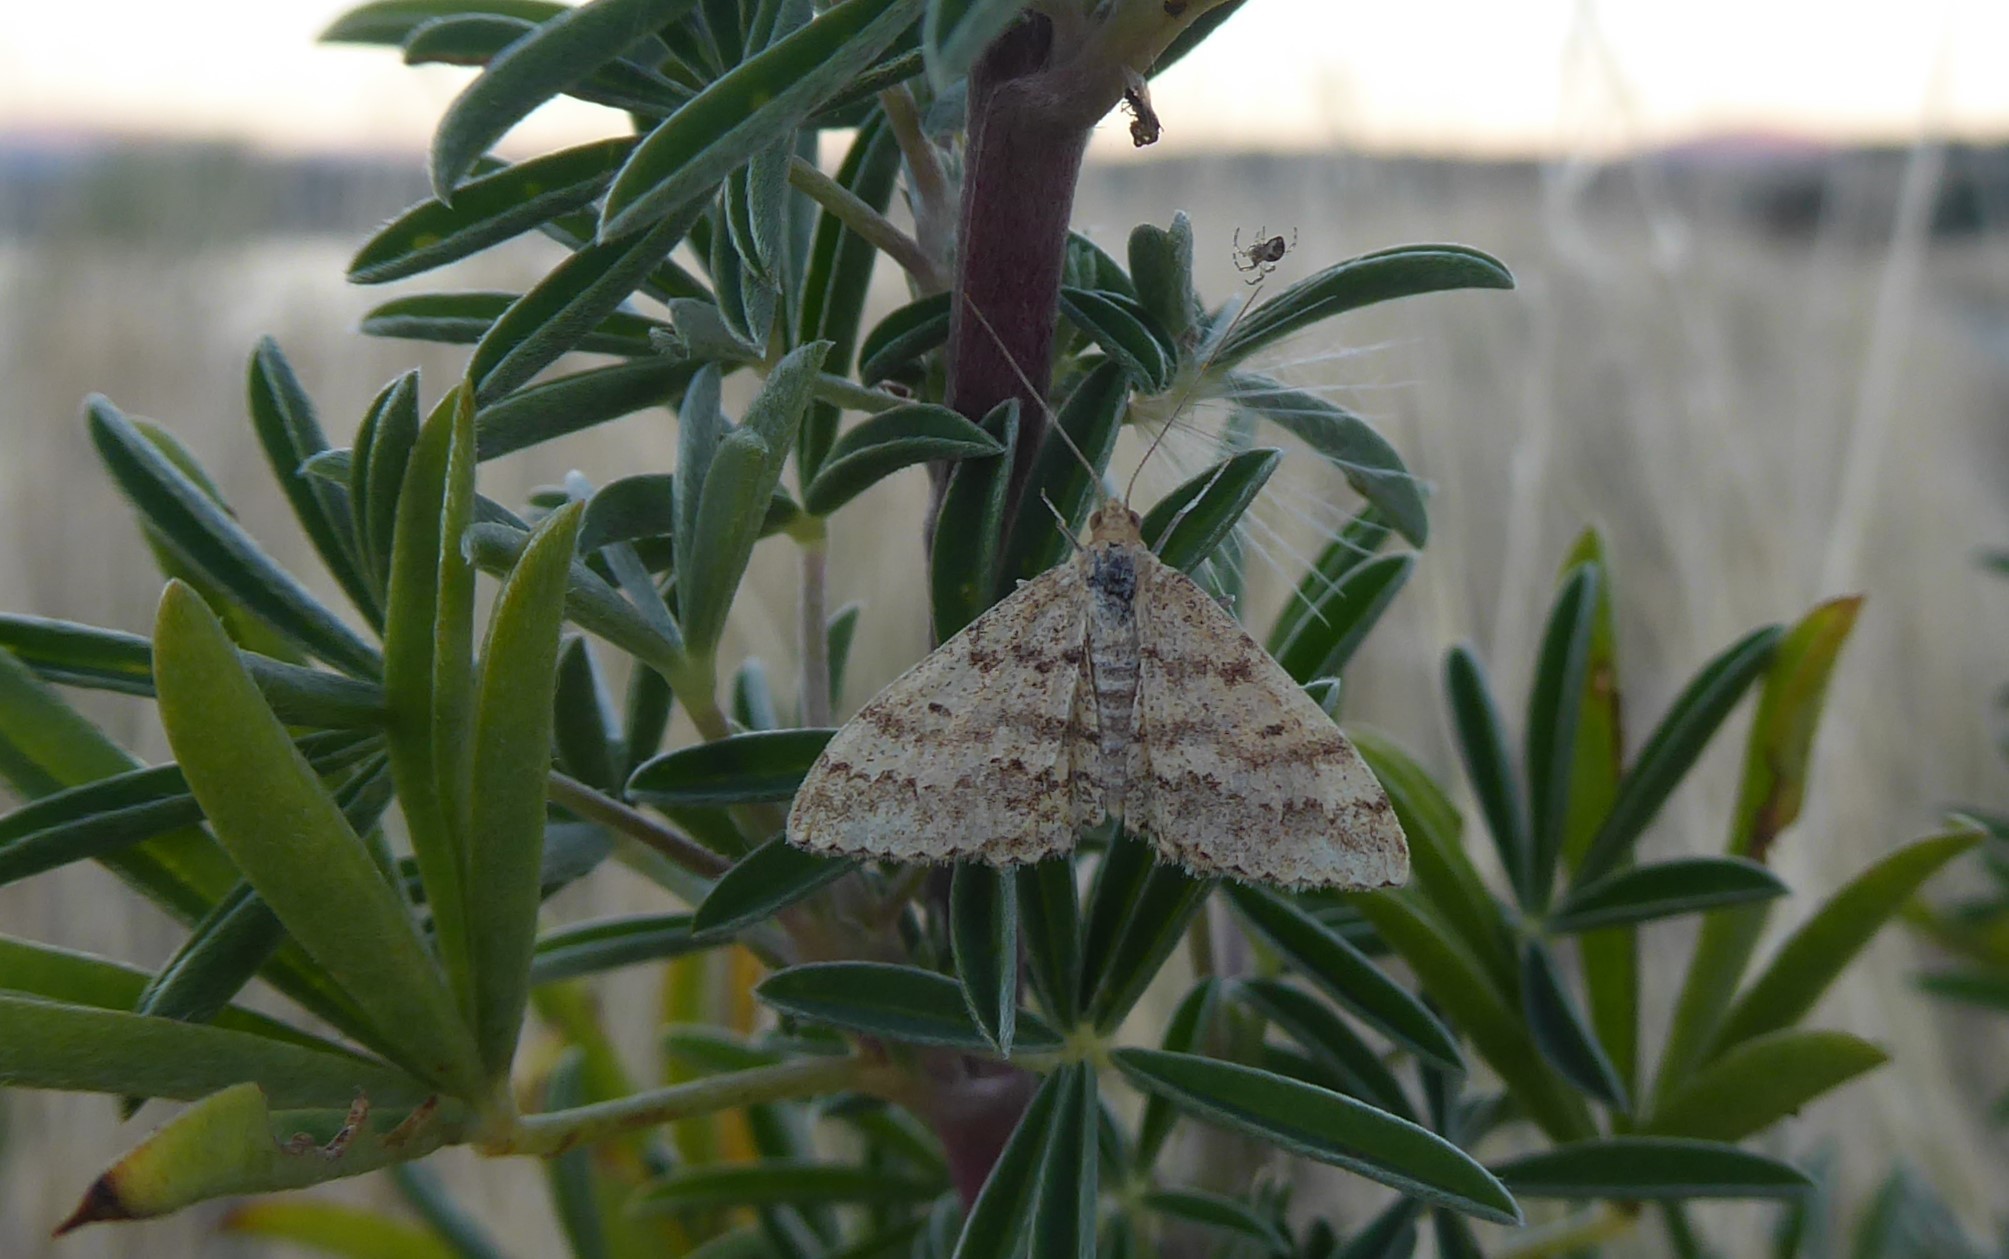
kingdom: Animalia
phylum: Arthropoda
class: Insecta
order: Lepidoptera
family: Geometridae
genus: Scopula
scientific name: Scopula rubraria
